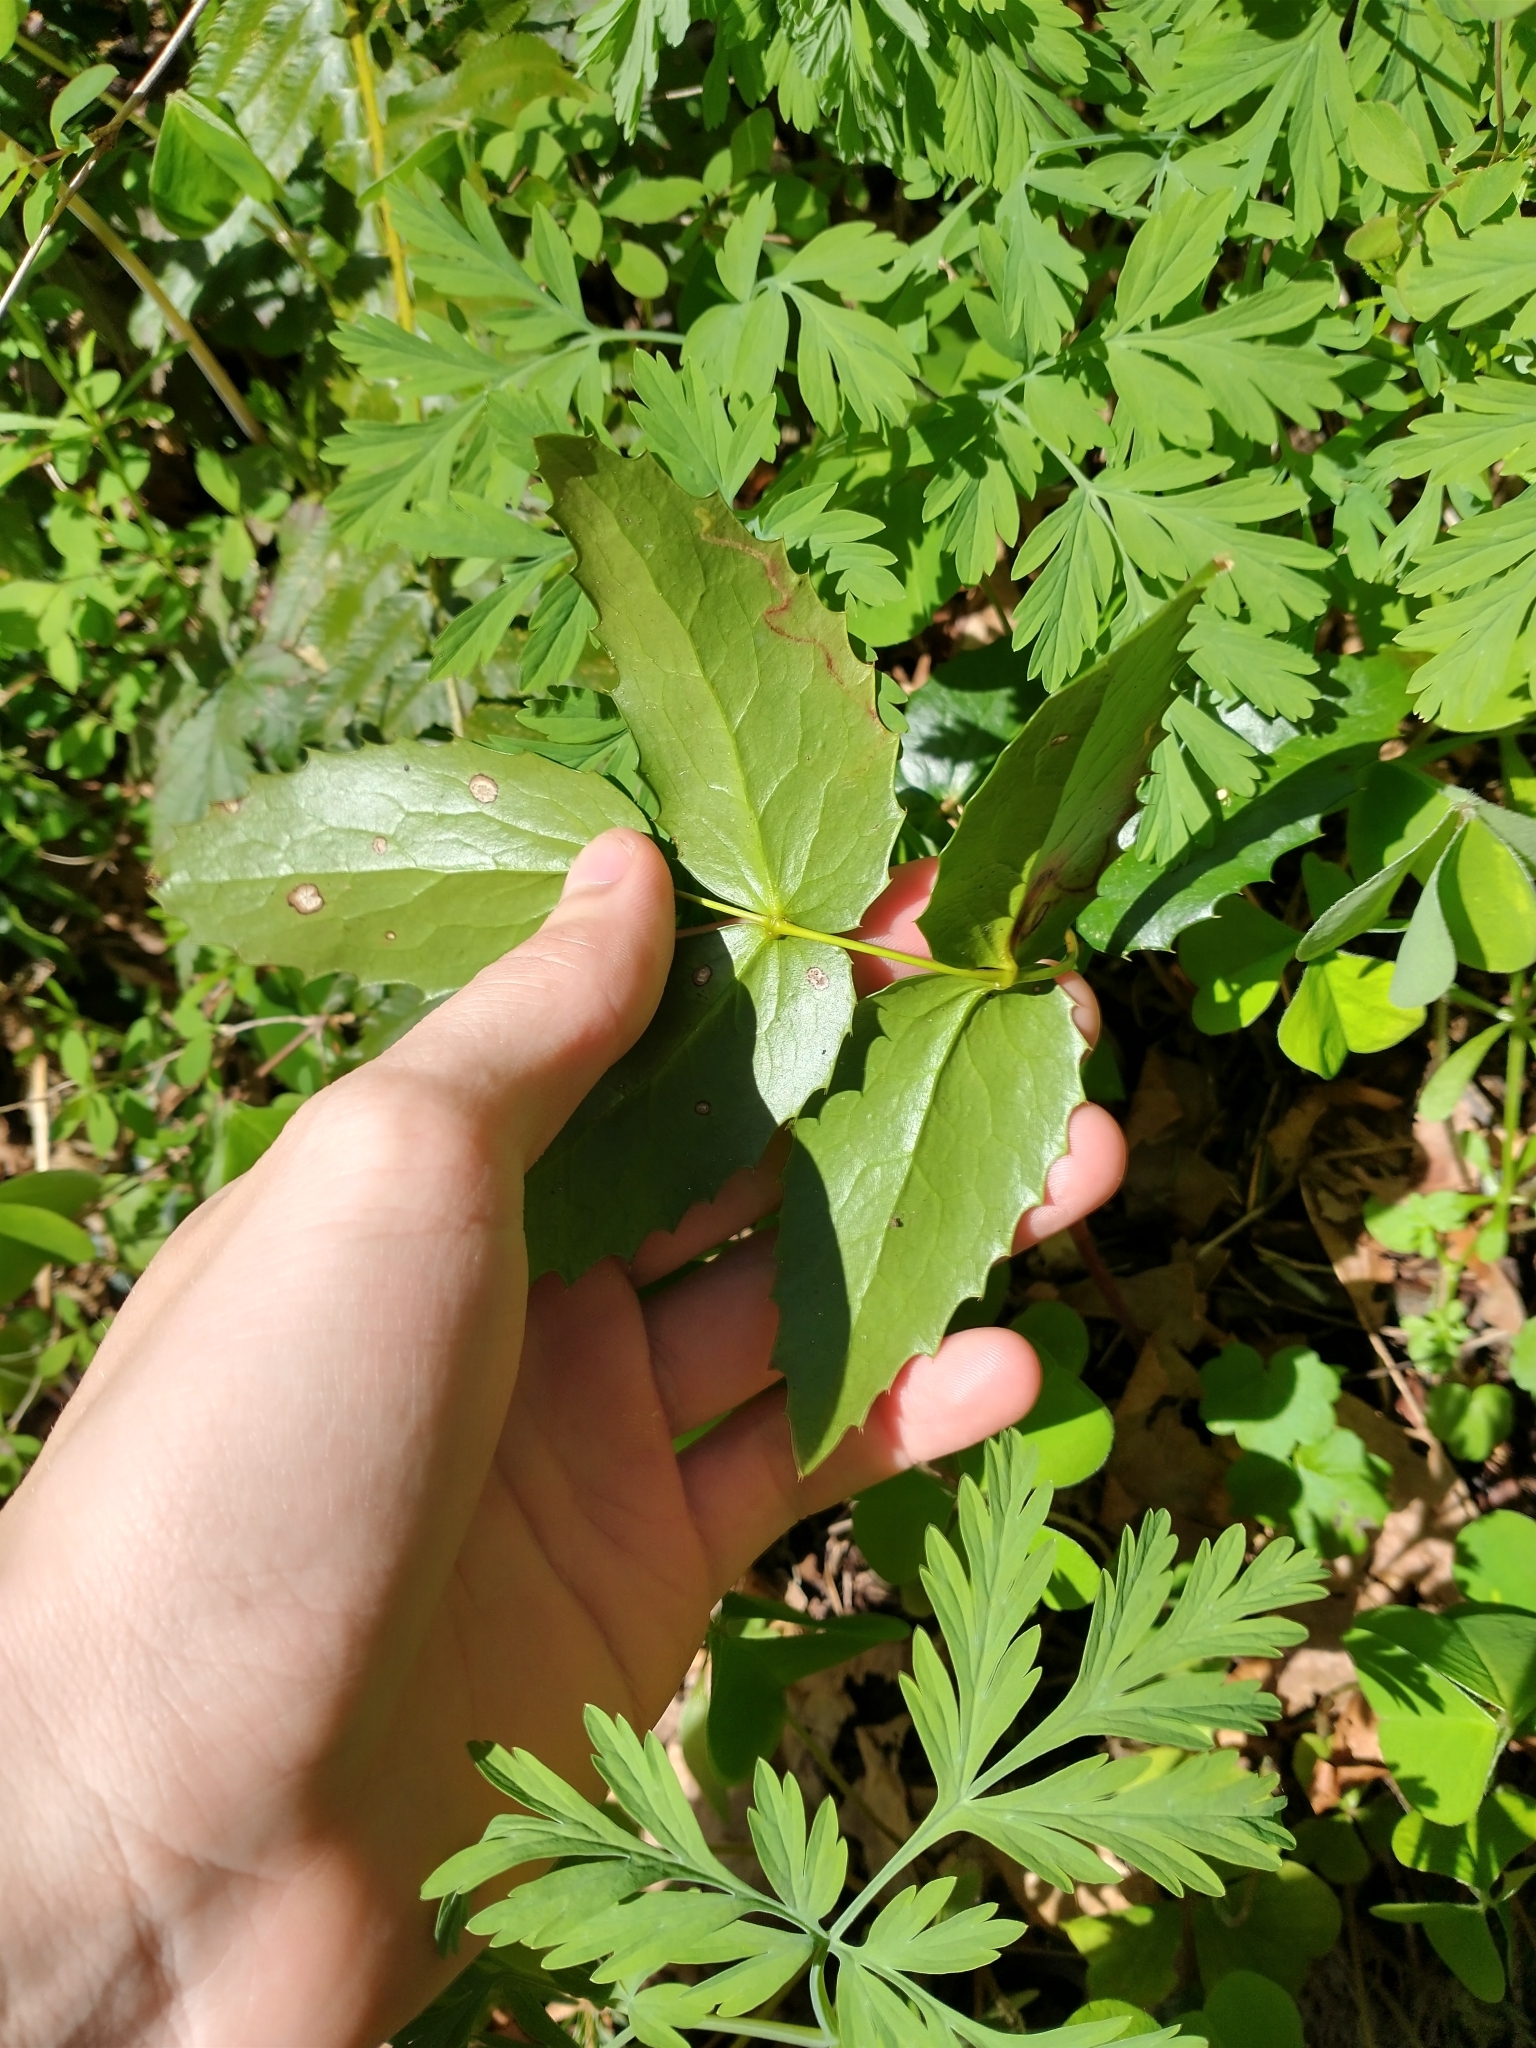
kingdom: Plantae
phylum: Tracheophyta
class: Magnoliopsida
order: Ranunculales
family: Berberidaceae
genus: Mahonia
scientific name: Mahonia nervosa
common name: Cascade oregon-grape
